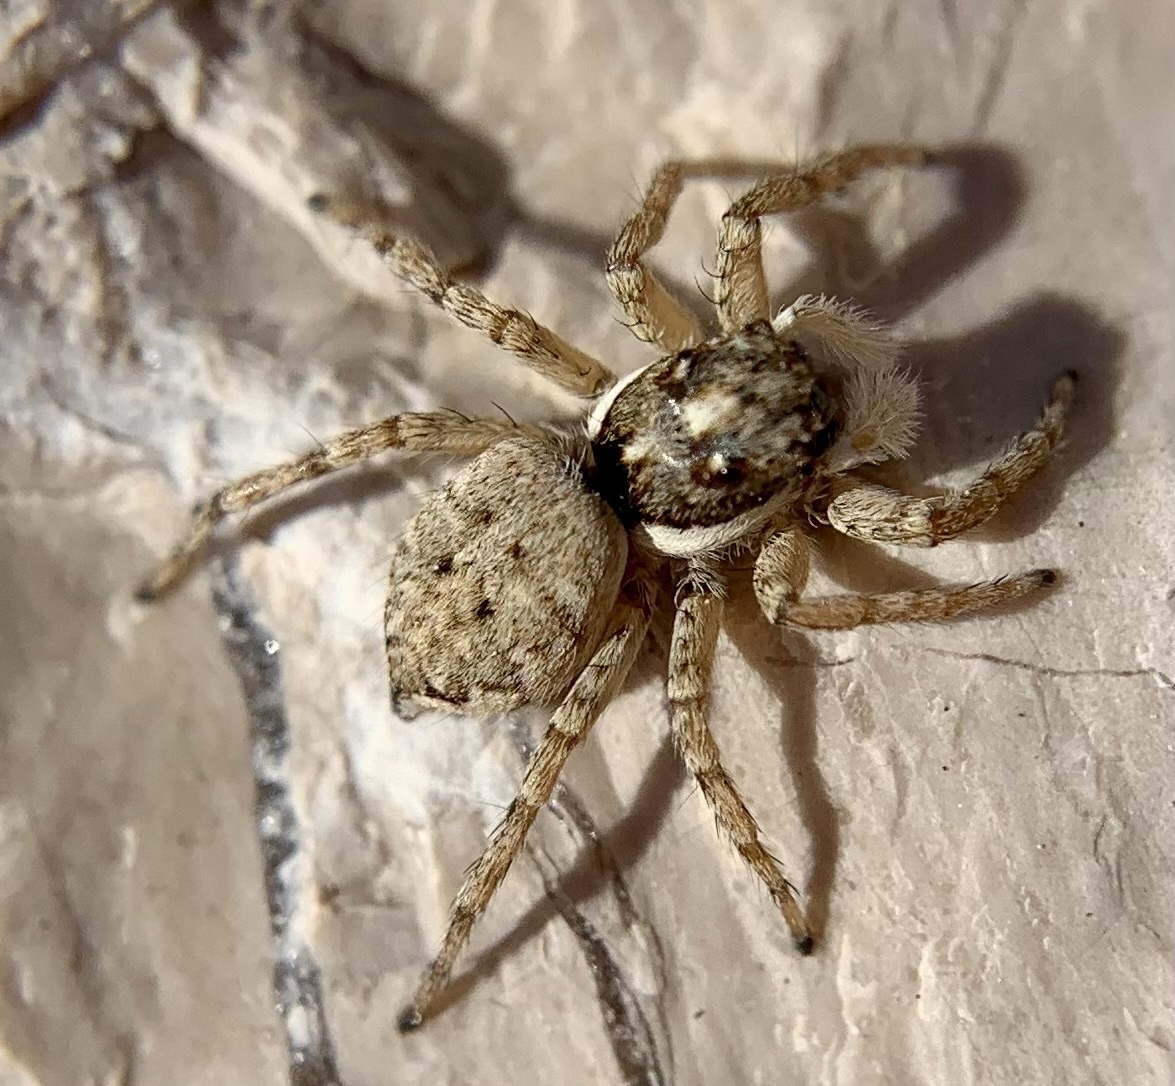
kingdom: Animalia
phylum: Arthropoda
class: Arachnida
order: Araneae
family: Salticidae
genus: Menemerus
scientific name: Menemerus semilimbatus
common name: Jumping spider
